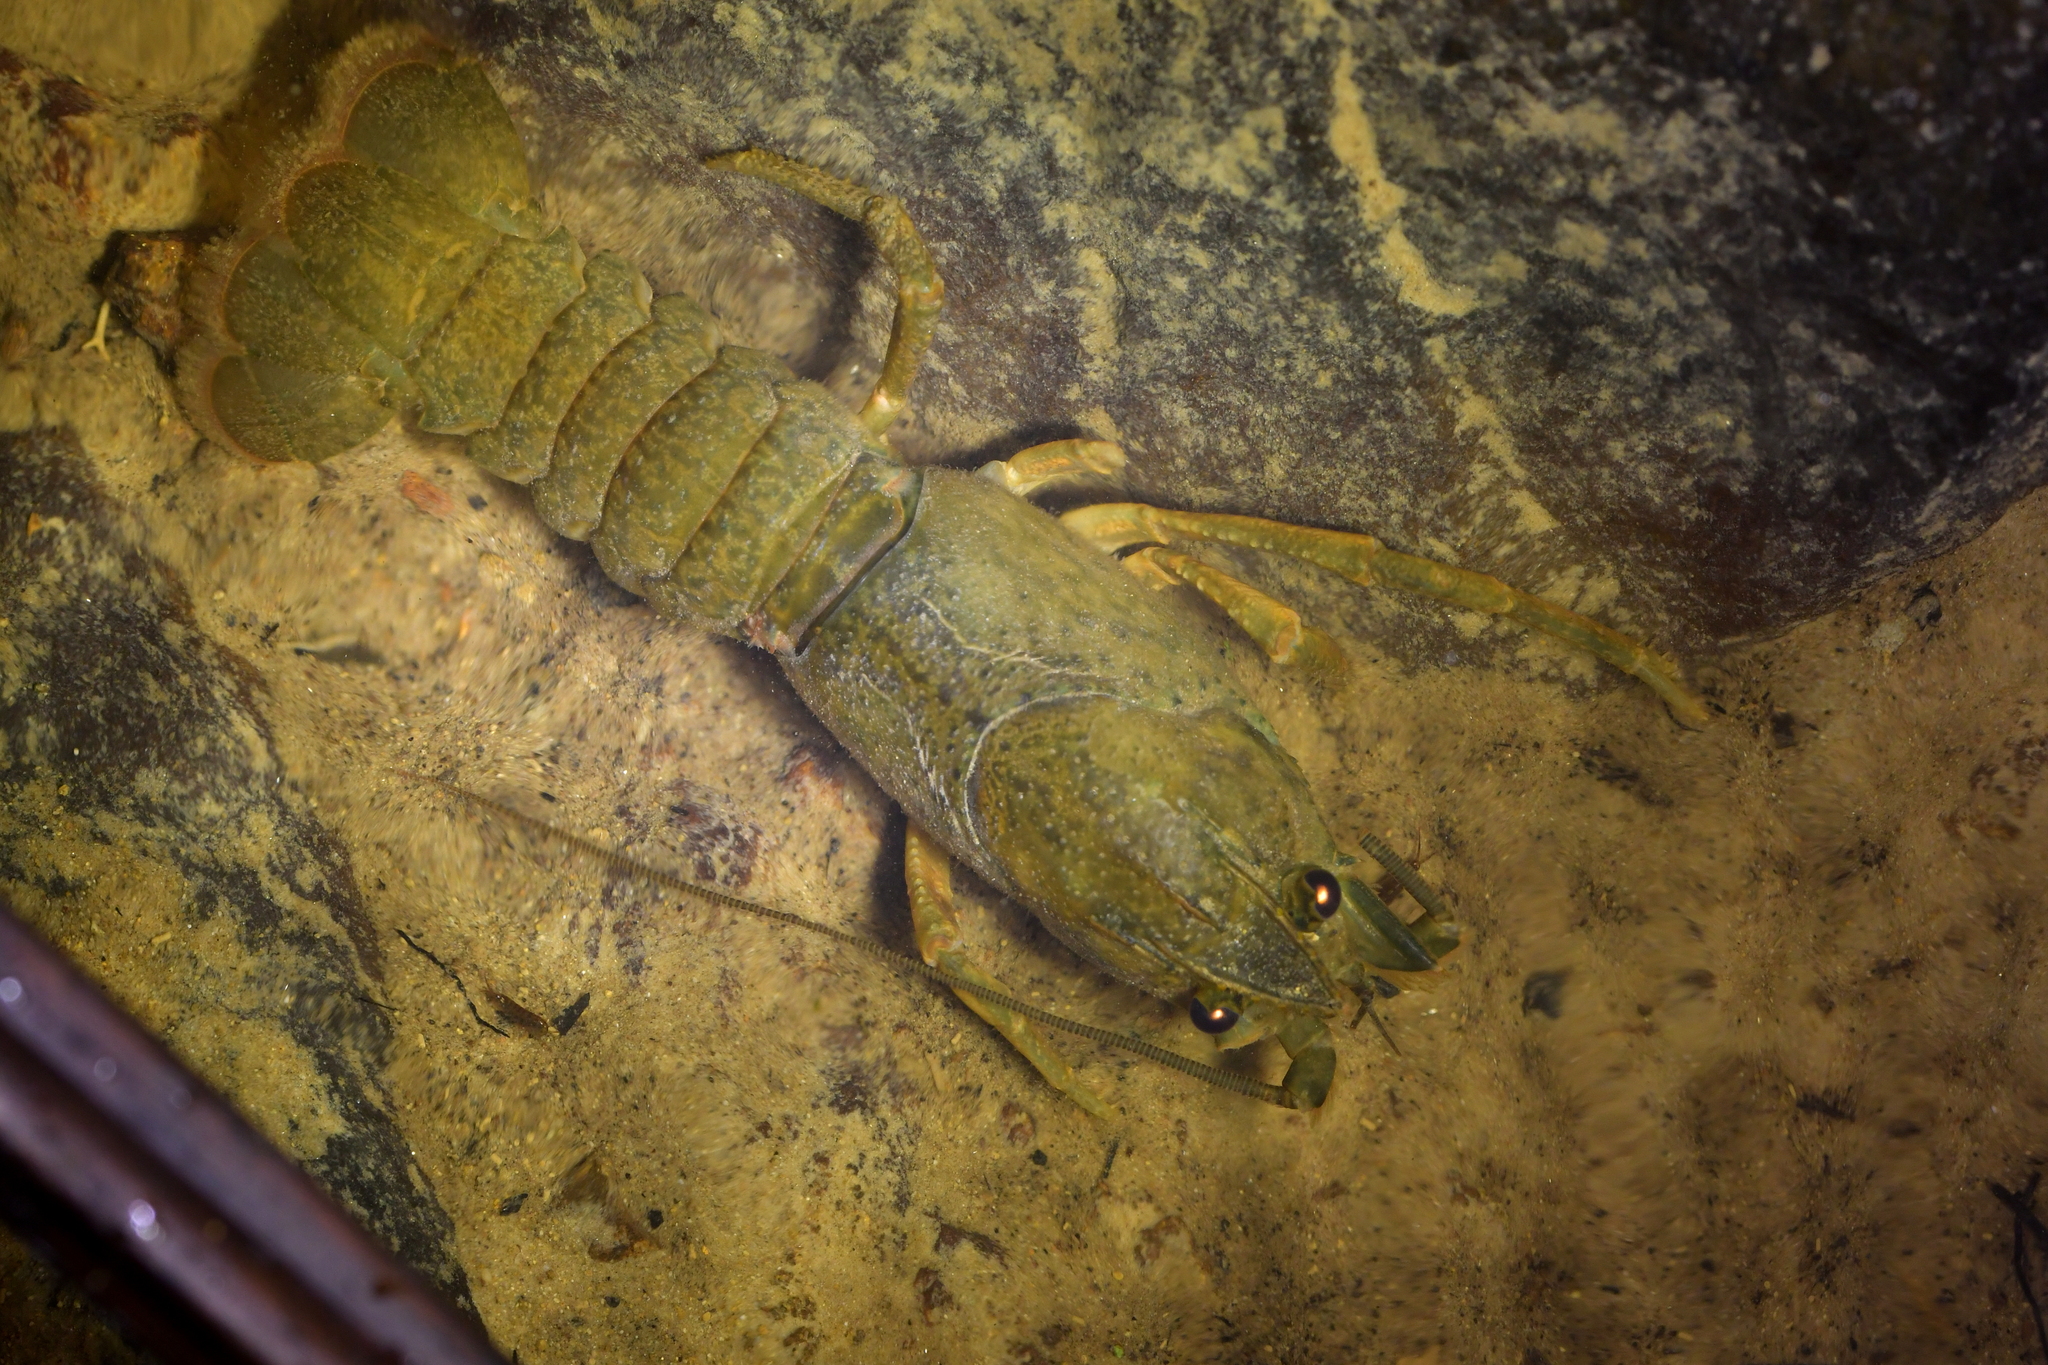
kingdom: Animalia
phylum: Arthropoda
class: Malacostraca
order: Decapoda
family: Parastacidae
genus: Paranephrops
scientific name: Paranephrops planifrons
